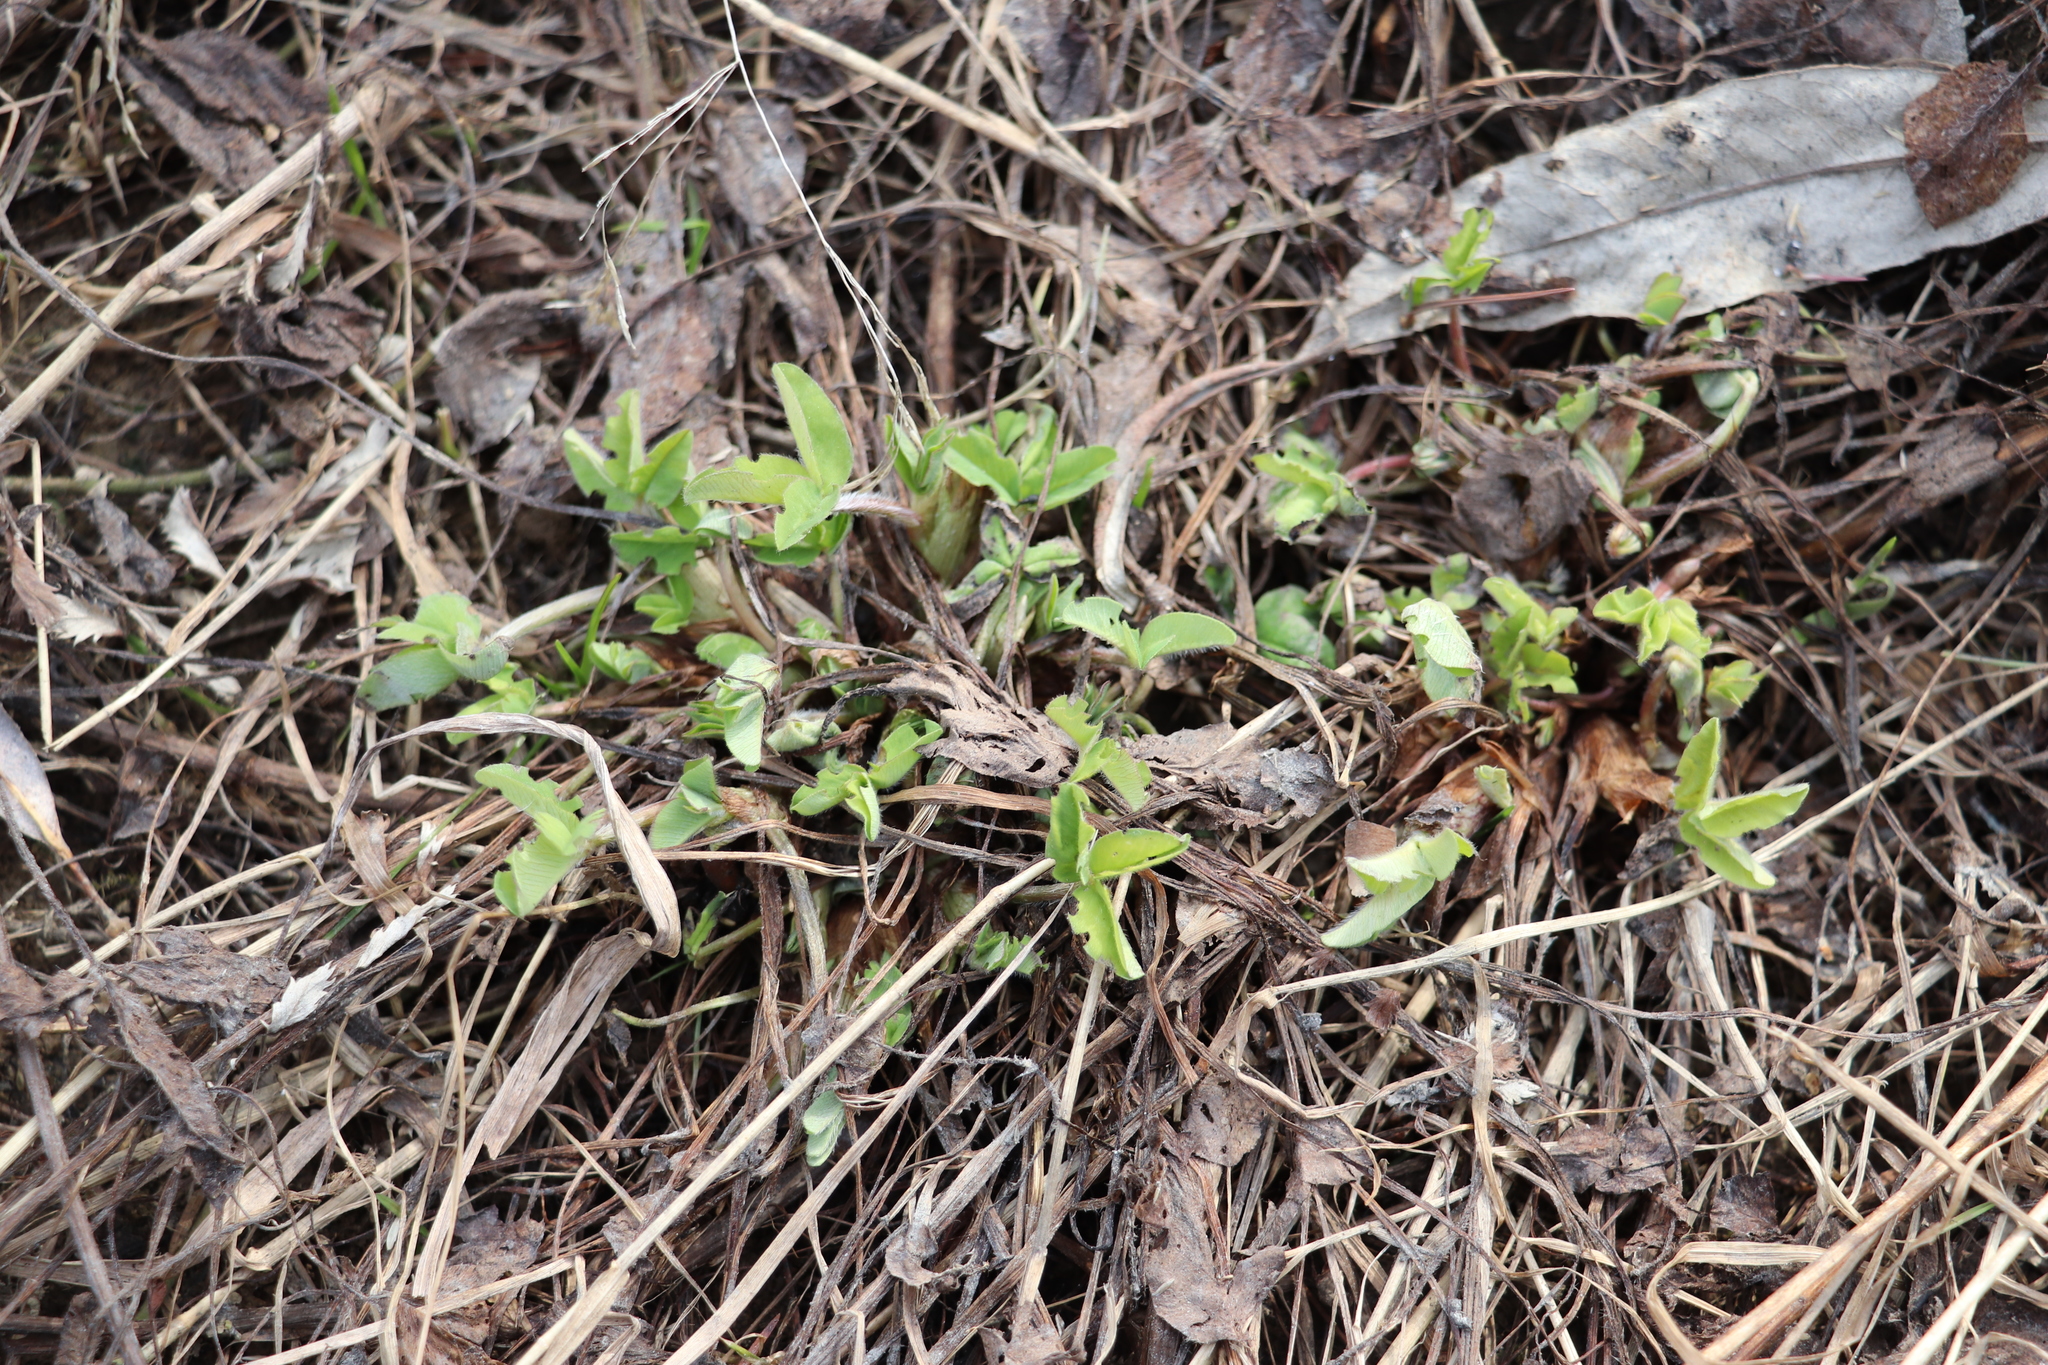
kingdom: Plantae
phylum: Tracheophyta
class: Magnoliopsida
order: Fabales
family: Fabaceae
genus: Trifolium
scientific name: Trifolium pratense
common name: Red clover
